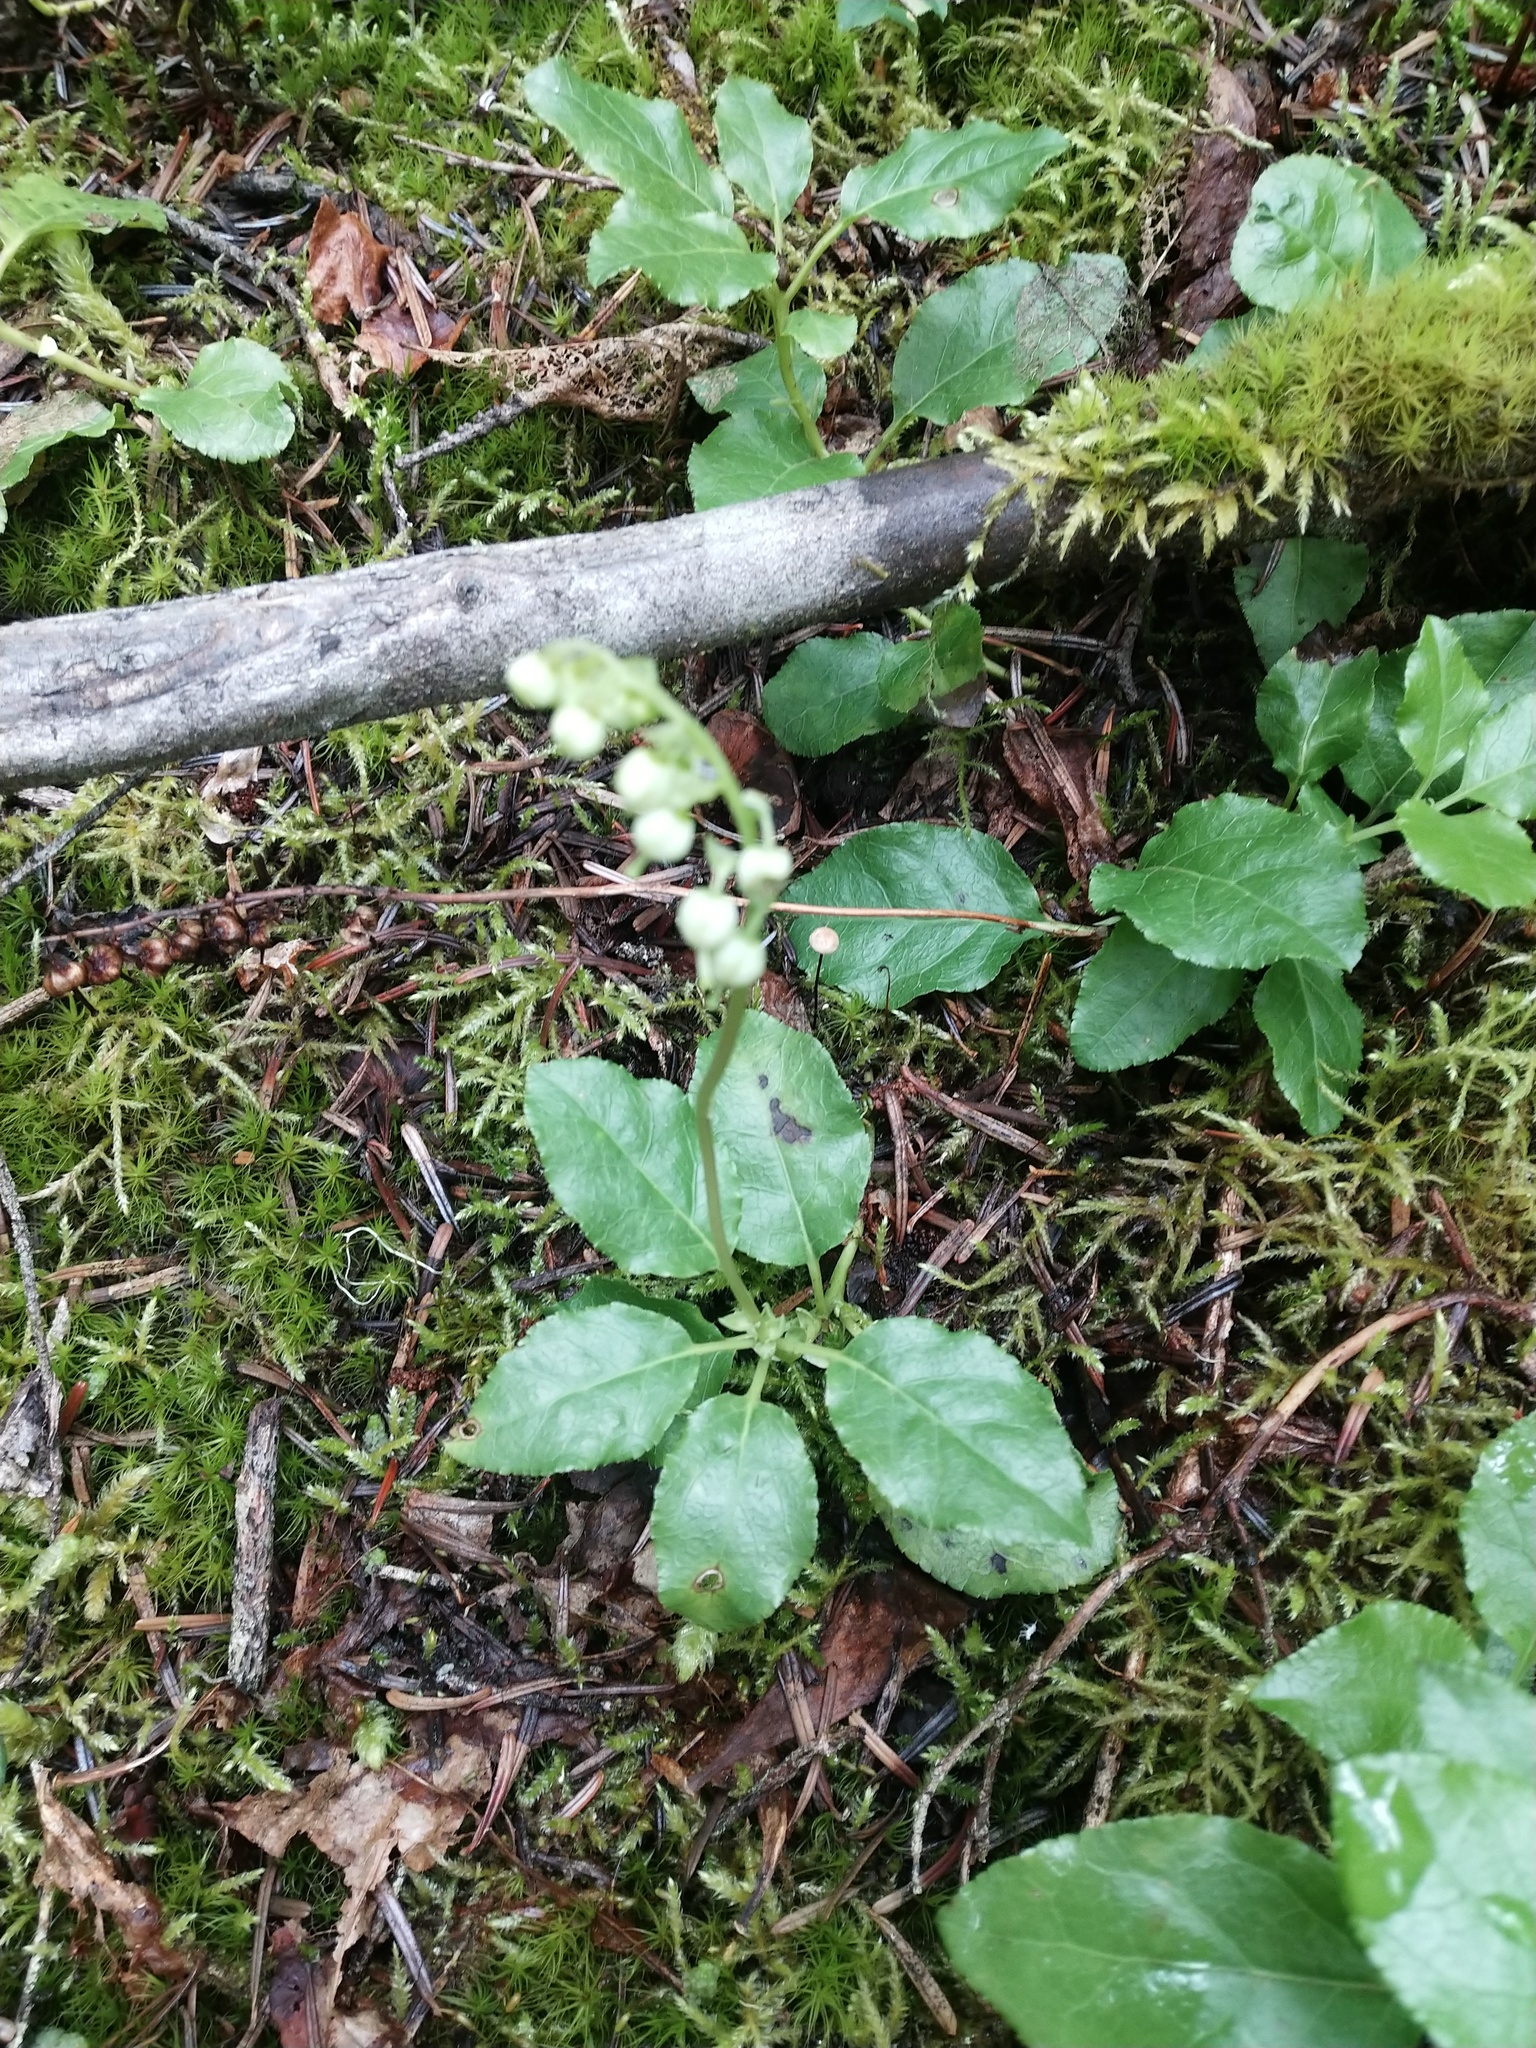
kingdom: Plantae
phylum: Tracheophyta
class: Magnoliopsida
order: Ericales
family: Ericaceae
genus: Orthilia
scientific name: Orthilia secunda
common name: One-sided orthilia
